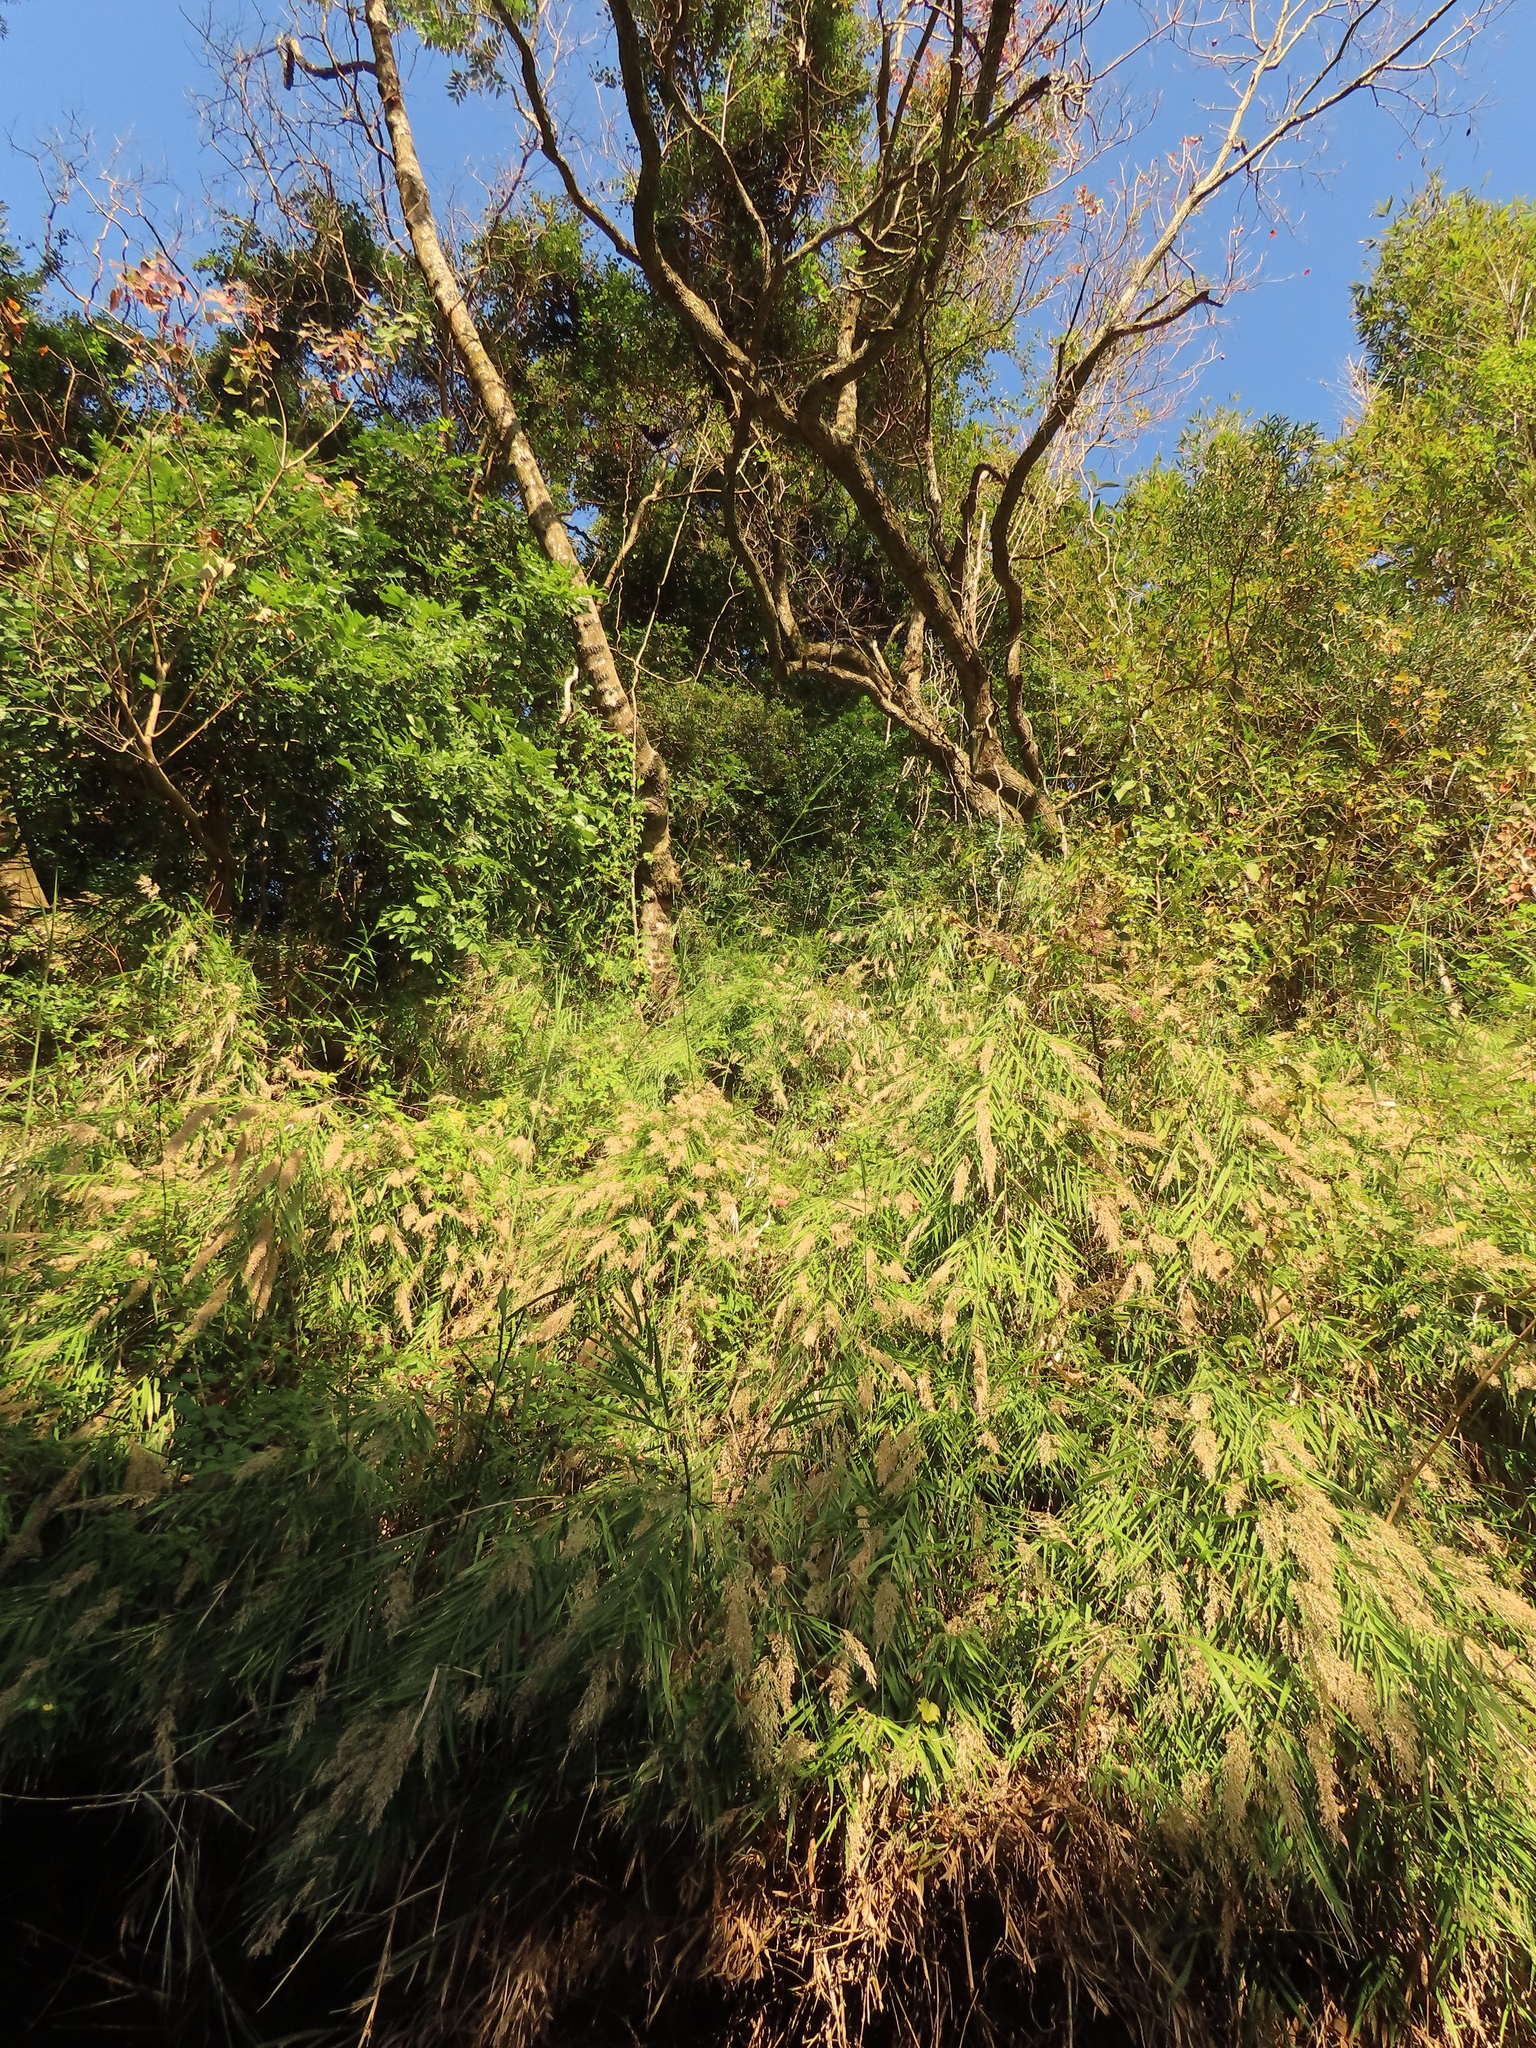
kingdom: Plantae
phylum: Tracheophyta
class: Liliopsida
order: Poales
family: Poaceae
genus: Arundo
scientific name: Arundo formosana
